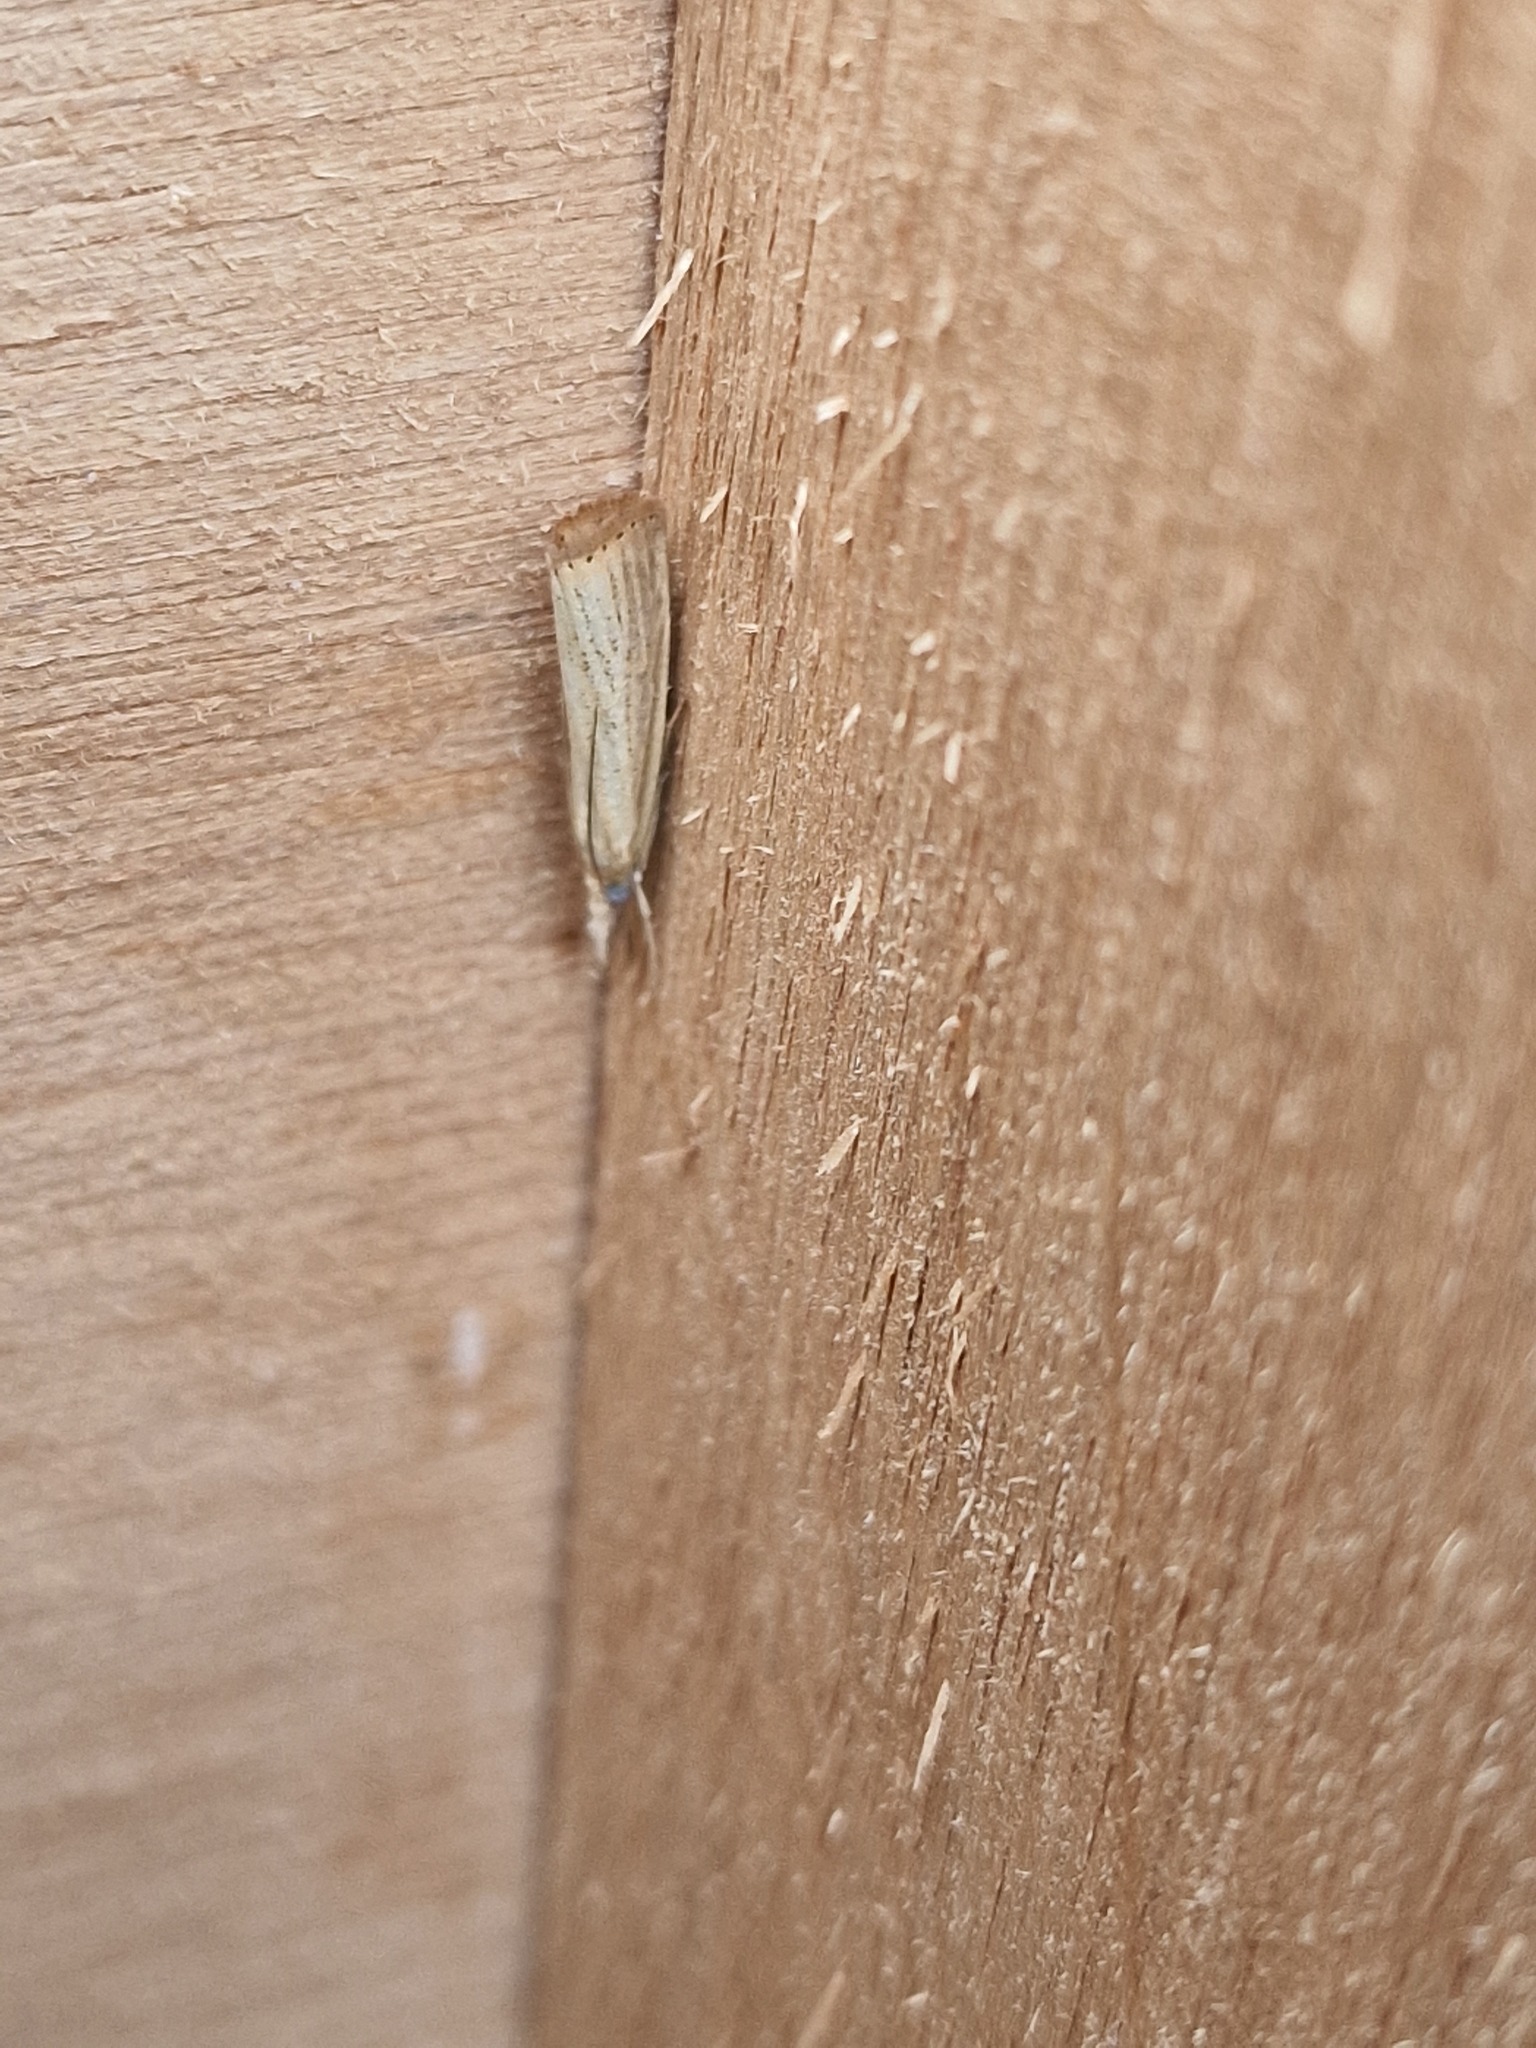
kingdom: Animalia
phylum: Arthropoda
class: Insecta
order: Lepidoptera
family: Crambidae
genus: Agriphila
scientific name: Agriphila straminella
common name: Straw grass-veneer
